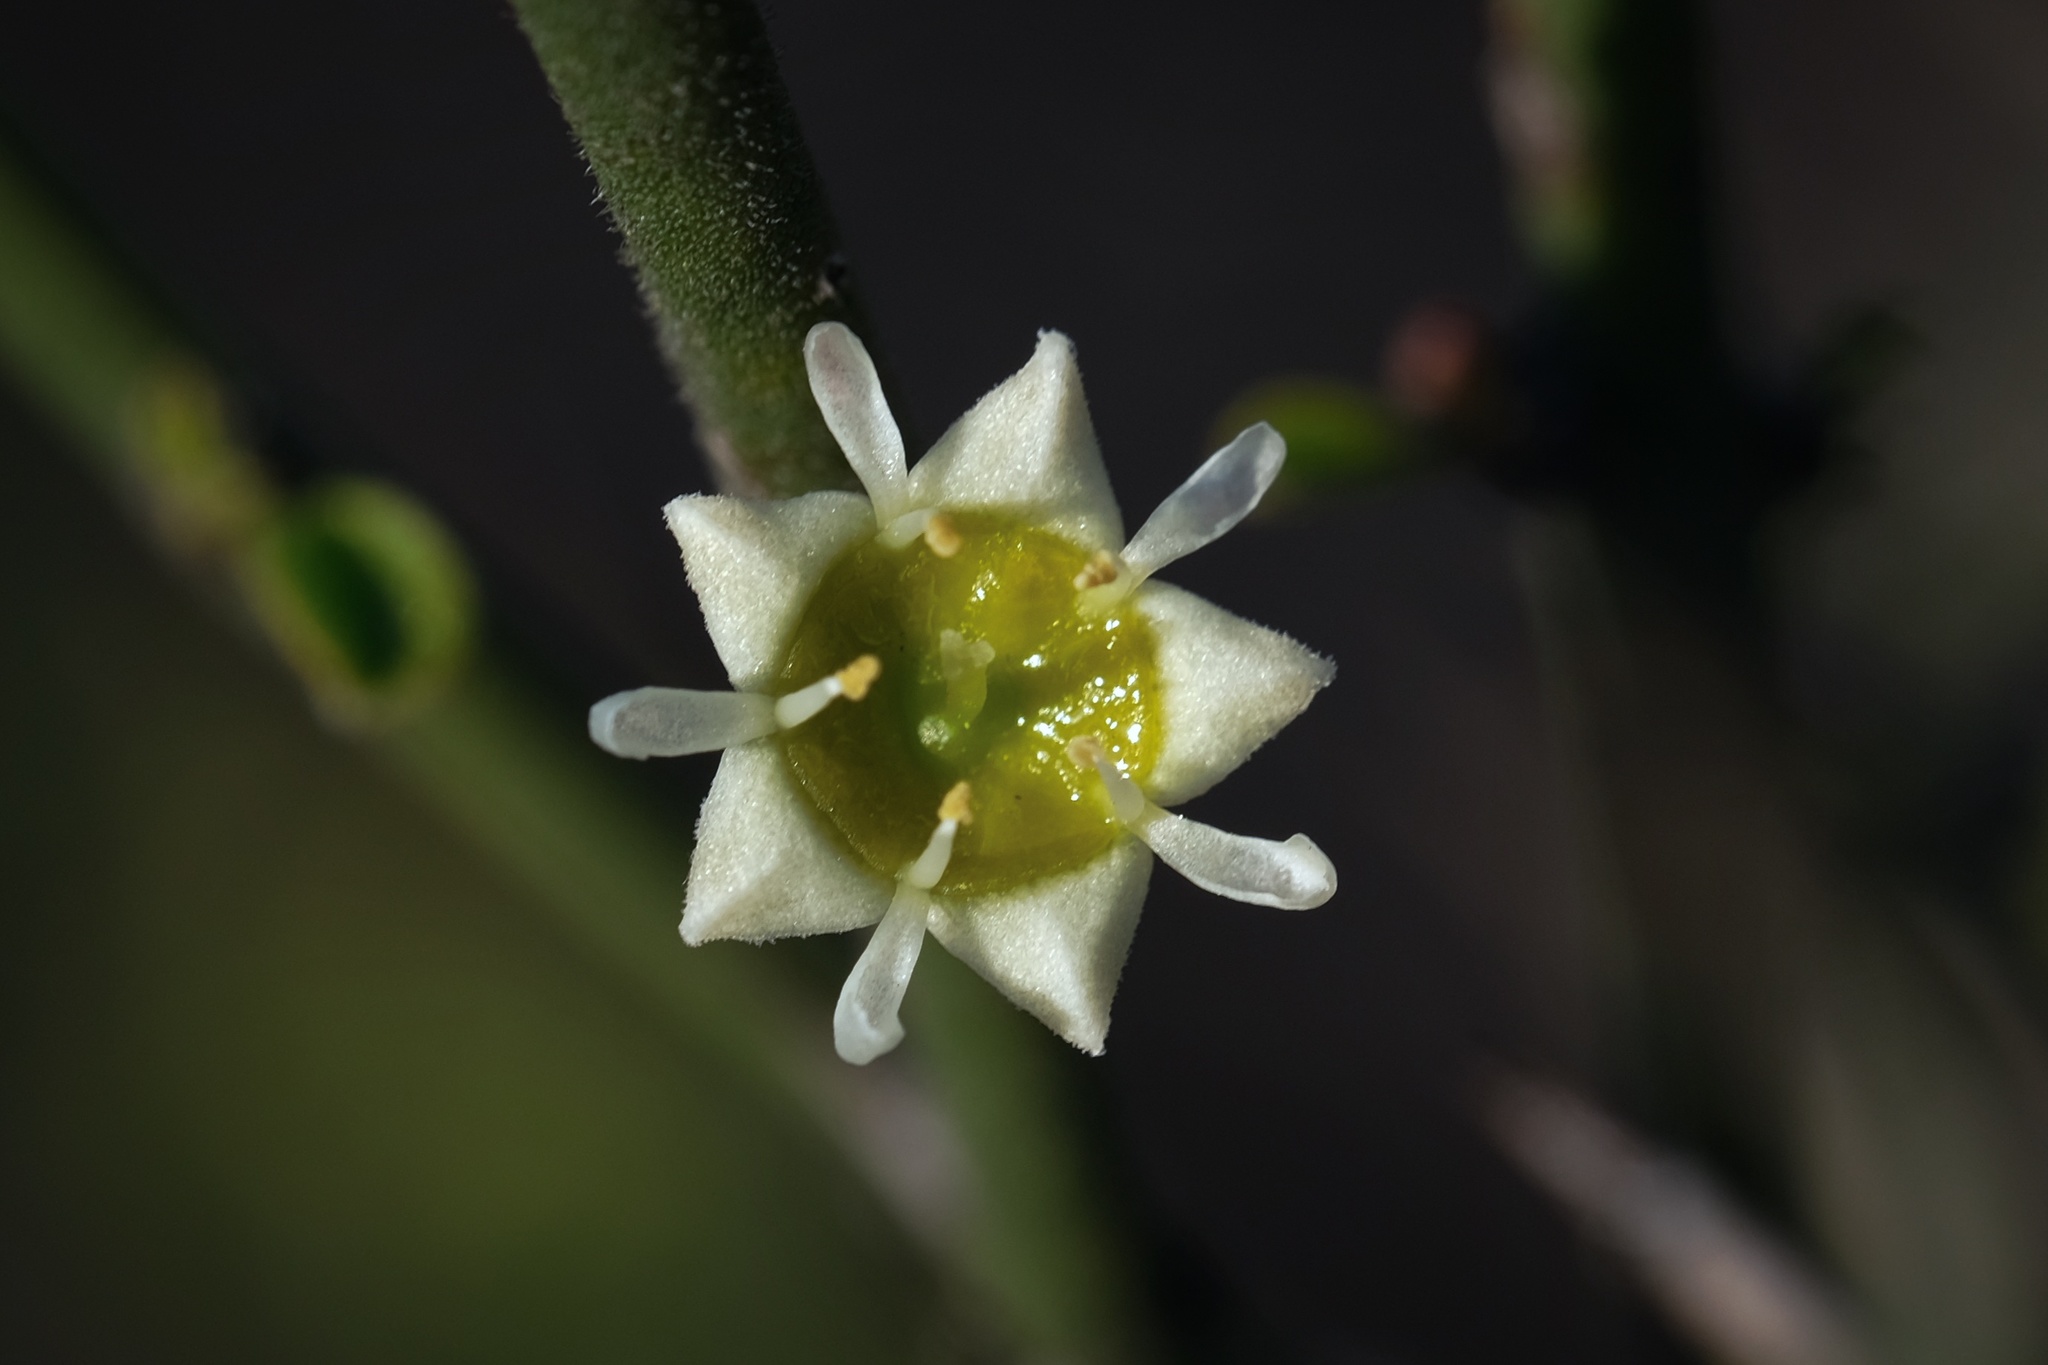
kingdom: Plantae
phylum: Tracheophyta
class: Magnoliopsida
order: Rosales
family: Rhamnaceae
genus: Adolphia
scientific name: Adolphia californica
